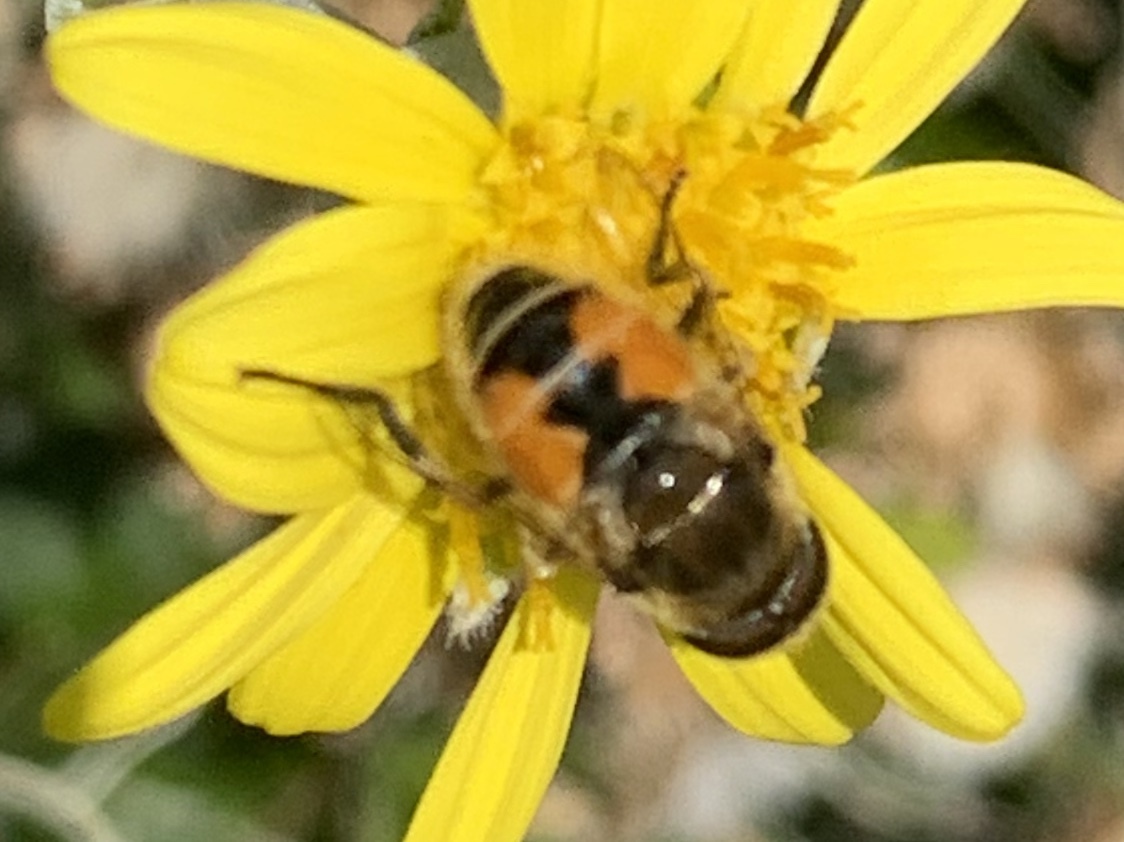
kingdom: Animalia
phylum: Arthropoda
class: Insecta
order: Diptera
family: Syrphidae
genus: Eristalis
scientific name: Eristalis arbustorum
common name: Hover fly
